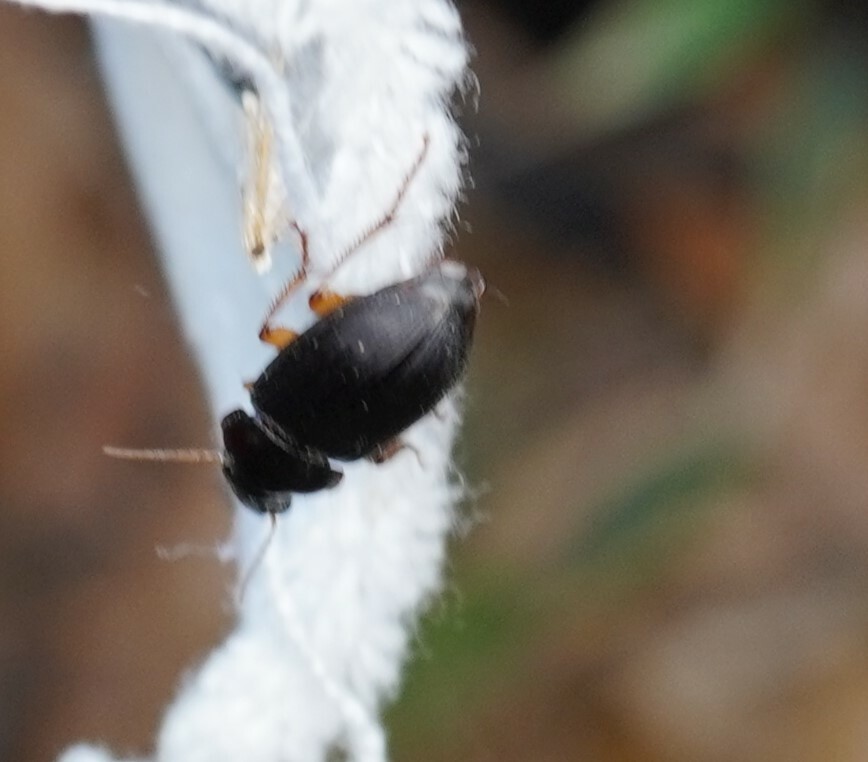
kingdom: Animalia
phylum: Arthropoda
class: Insecta
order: Coleoptera
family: Carabidae
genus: Harpalus
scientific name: Harpalus pensylvanicus
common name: Pennsylvania dingy ground beetle
